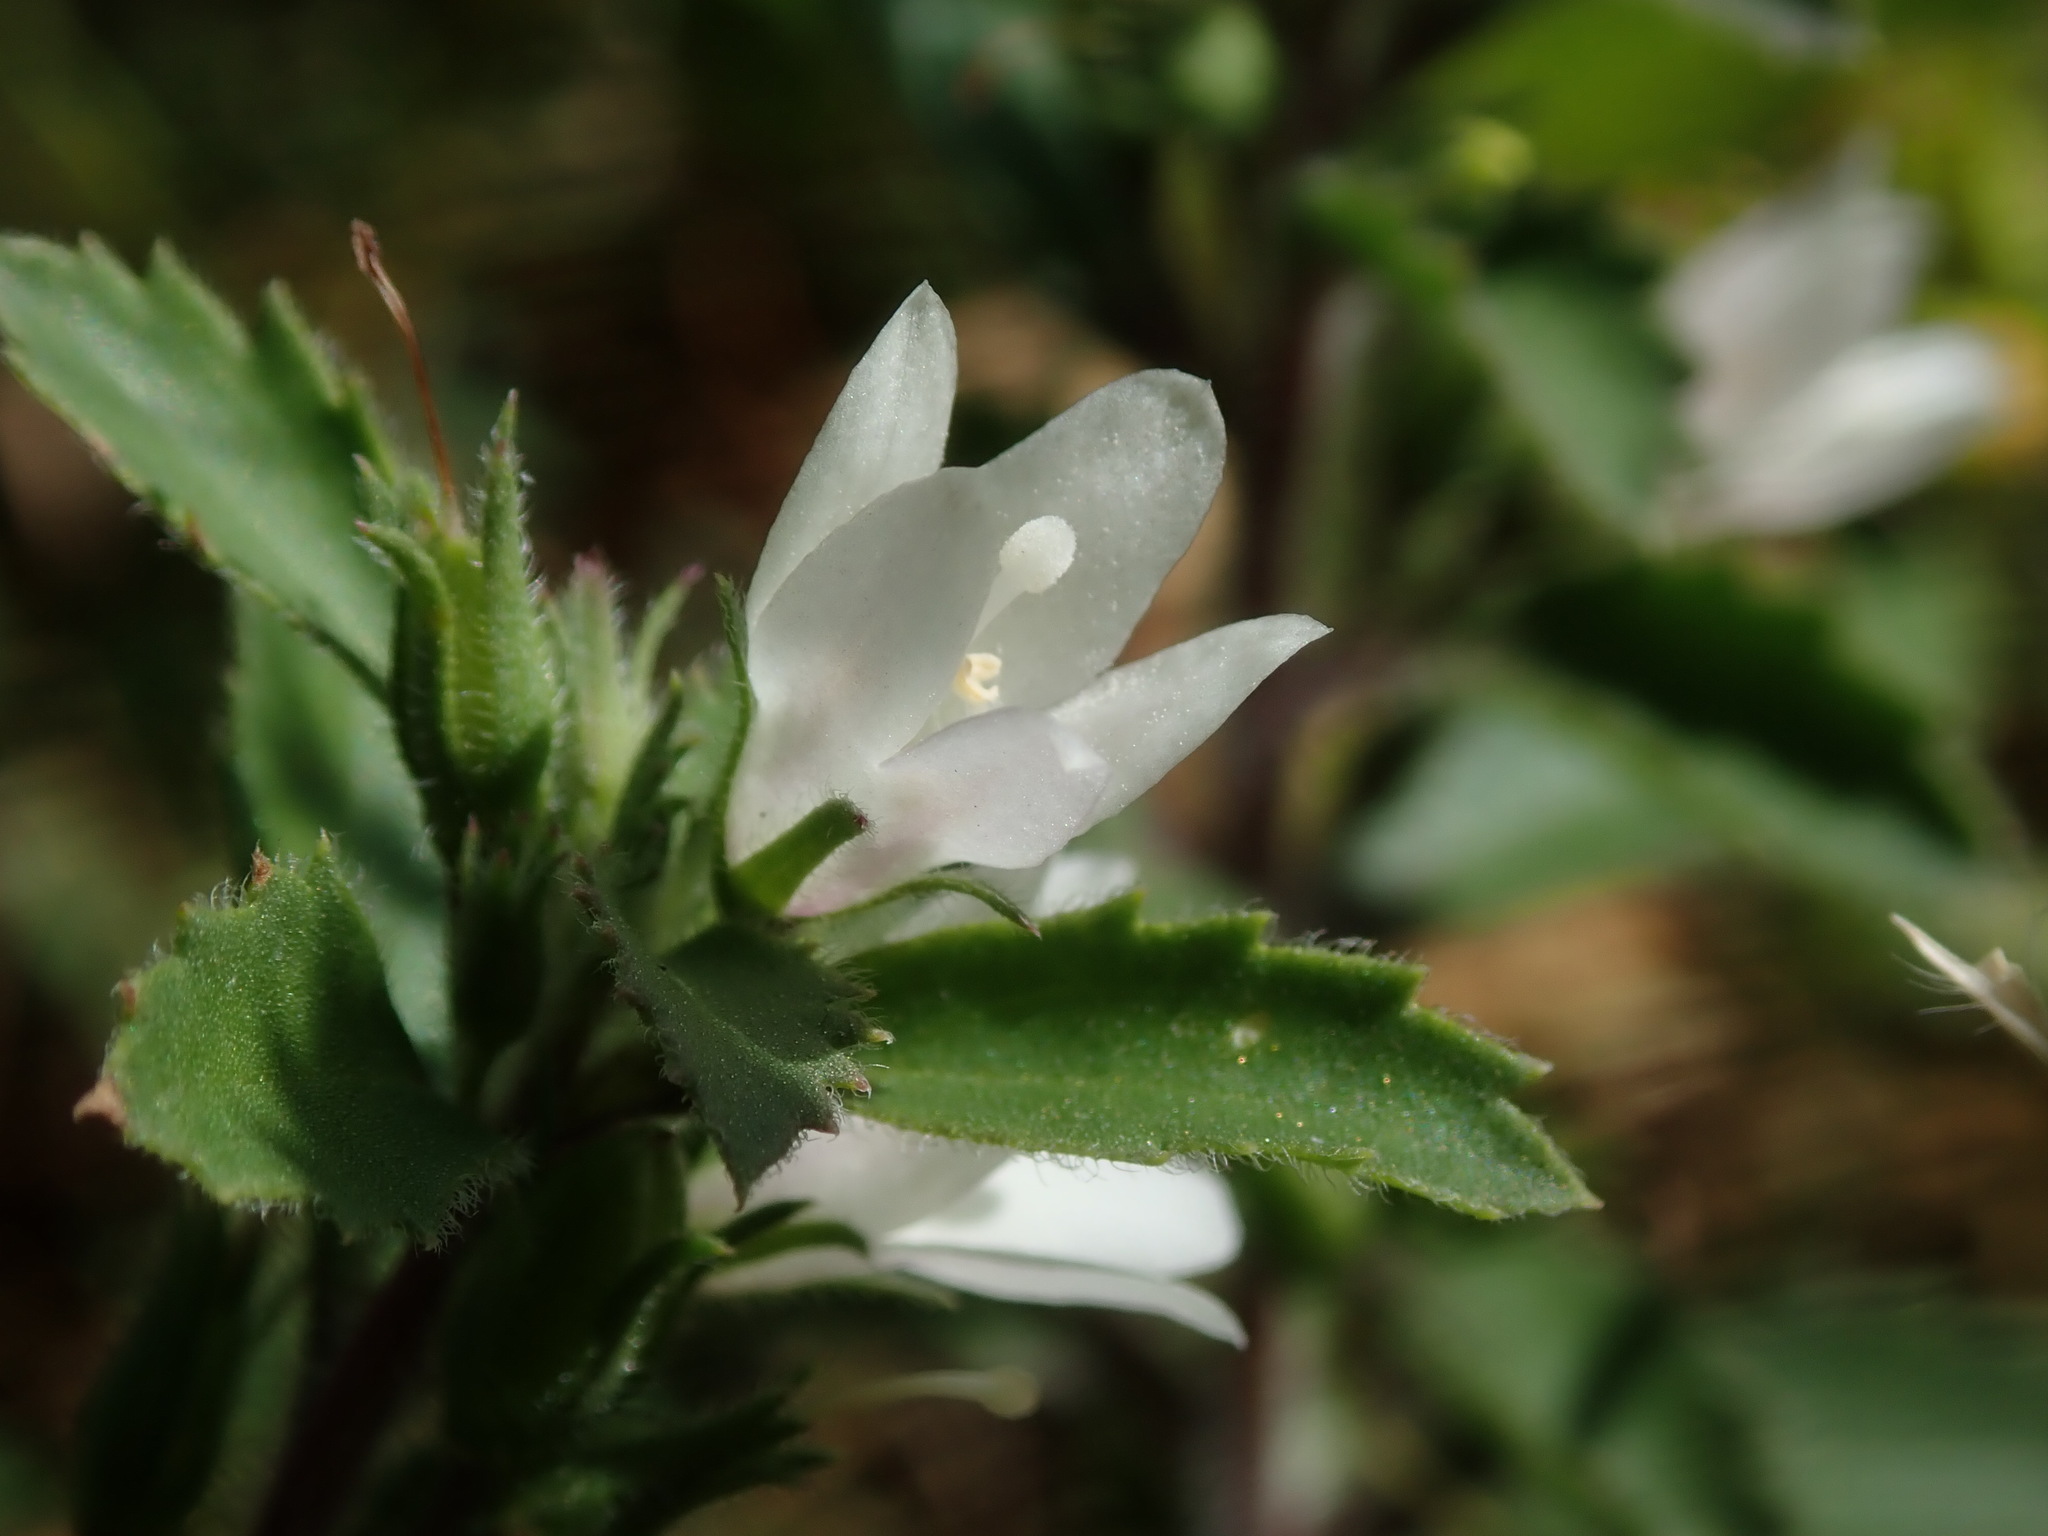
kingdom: Plantae
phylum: Tracheophyta
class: Magnoliopsida
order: Lamiales
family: Scrophulariaceae
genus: Capraria
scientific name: Capraria biflora
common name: Goatweed
